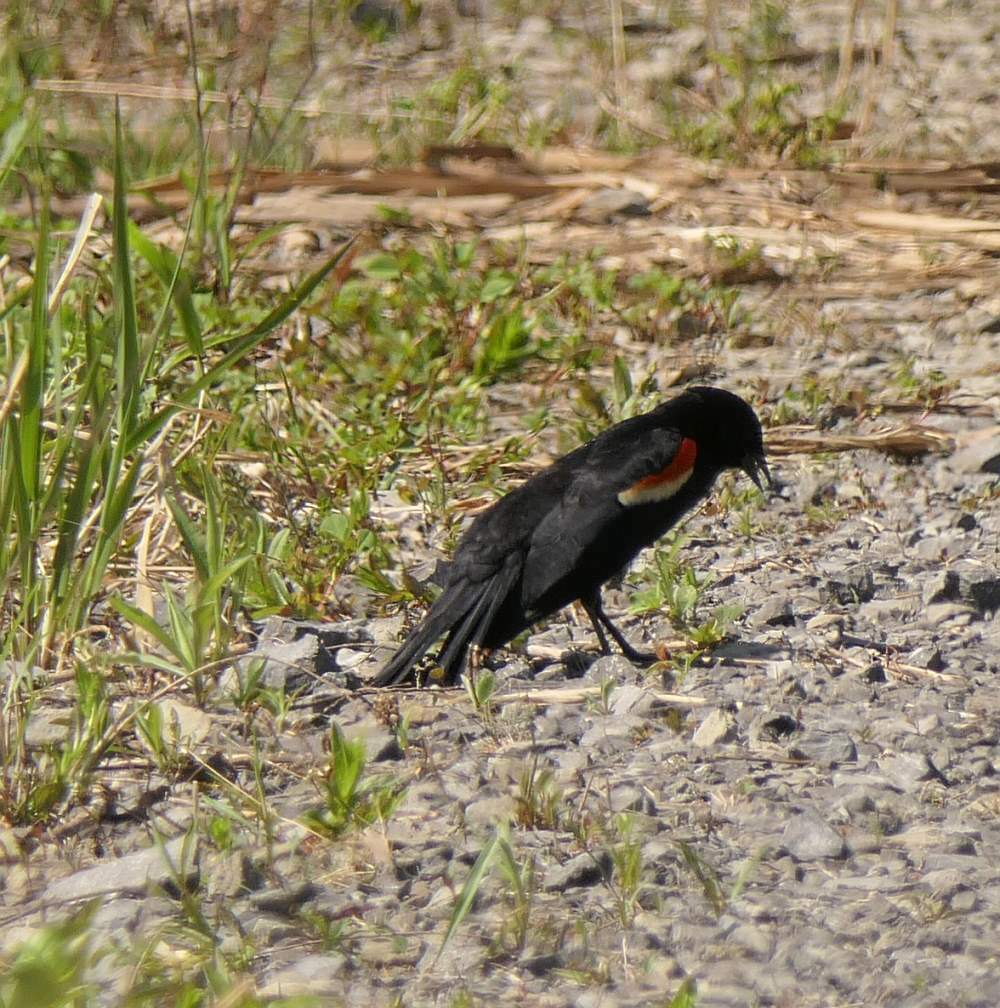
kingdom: Animalia
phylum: Chordata
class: Aves
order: Passeriformes
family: Icteridae
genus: Agelaius
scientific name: Agelaius phoeniceus
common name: Red-winged blackbird
